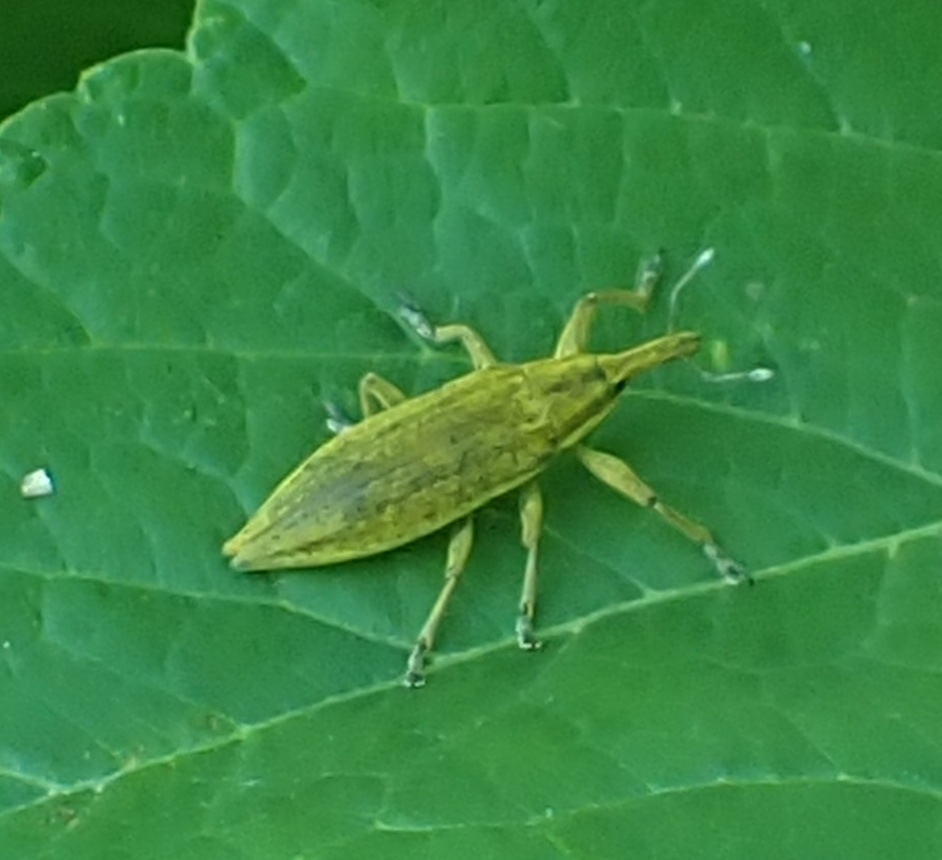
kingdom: Animalia
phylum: Arthropoda
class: Insecta
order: Coleoptera
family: Curculionidae
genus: Lixus
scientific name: Lixus iridis
